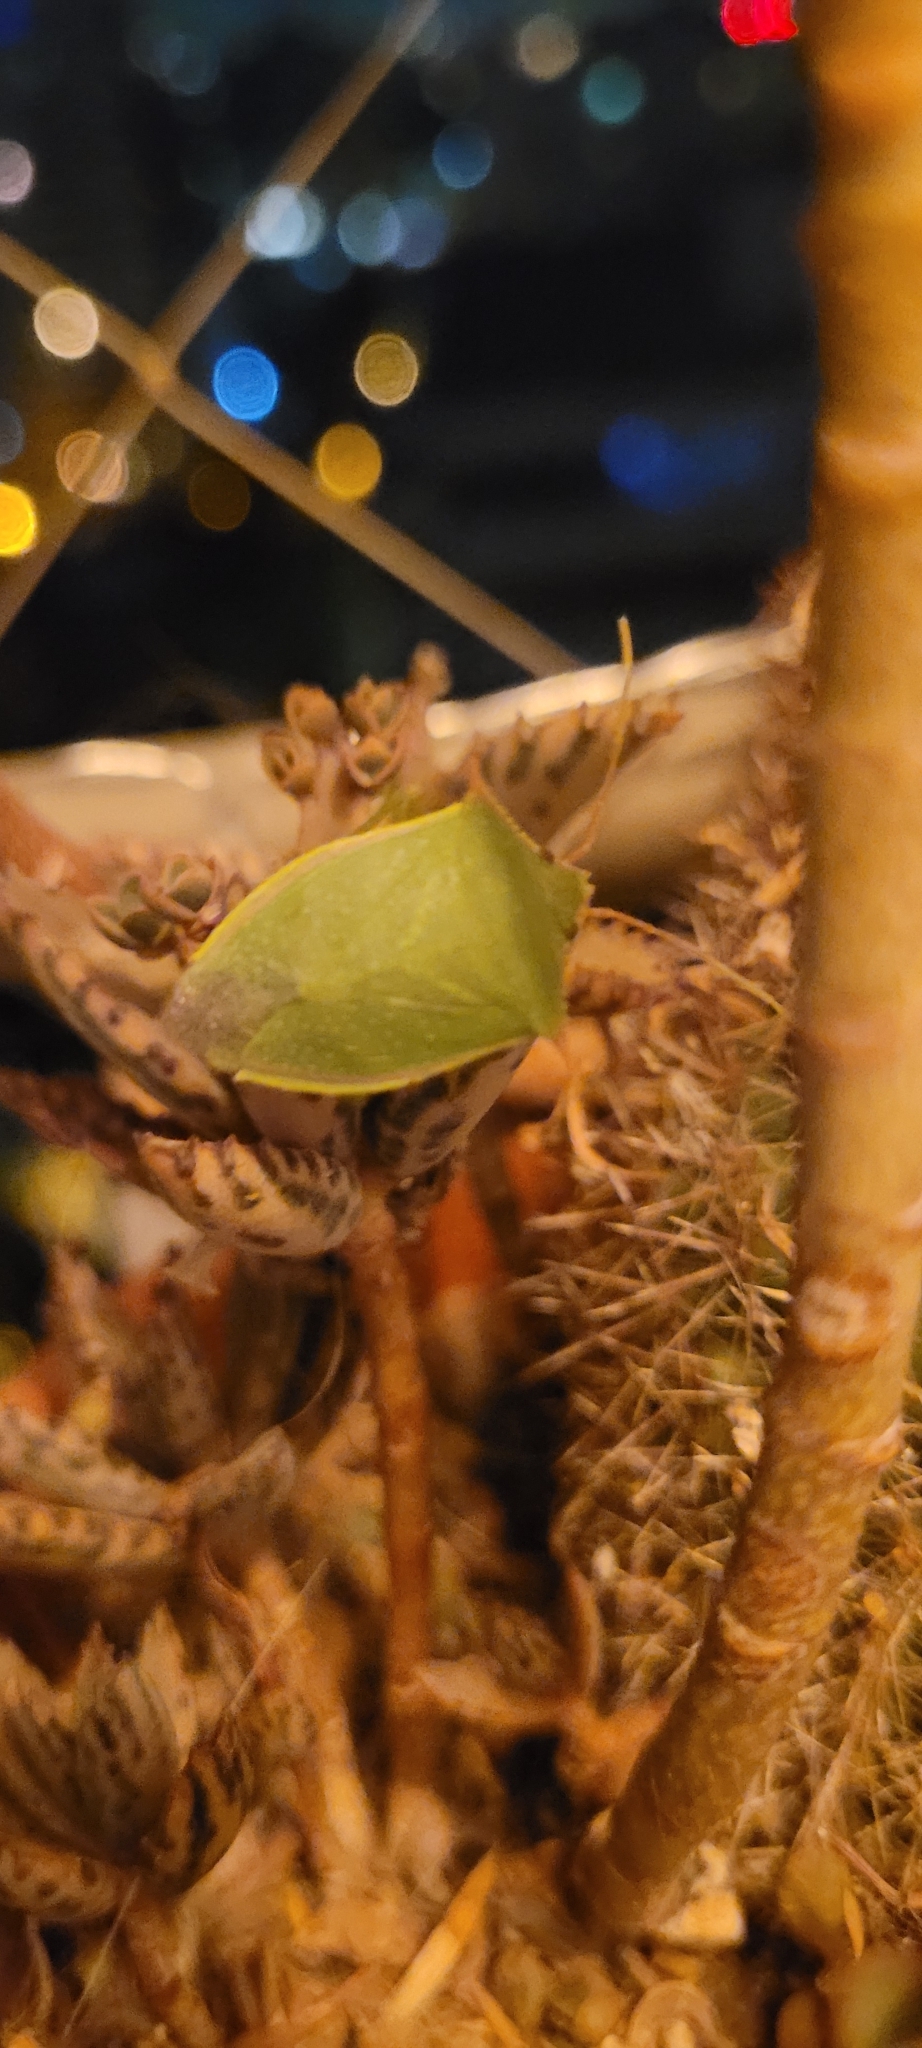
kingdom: Animalia
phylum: Arthropoda
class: Insecta
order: Hemiptera
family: Pentatomidae
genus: Loxa
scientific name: Loxa deducta
